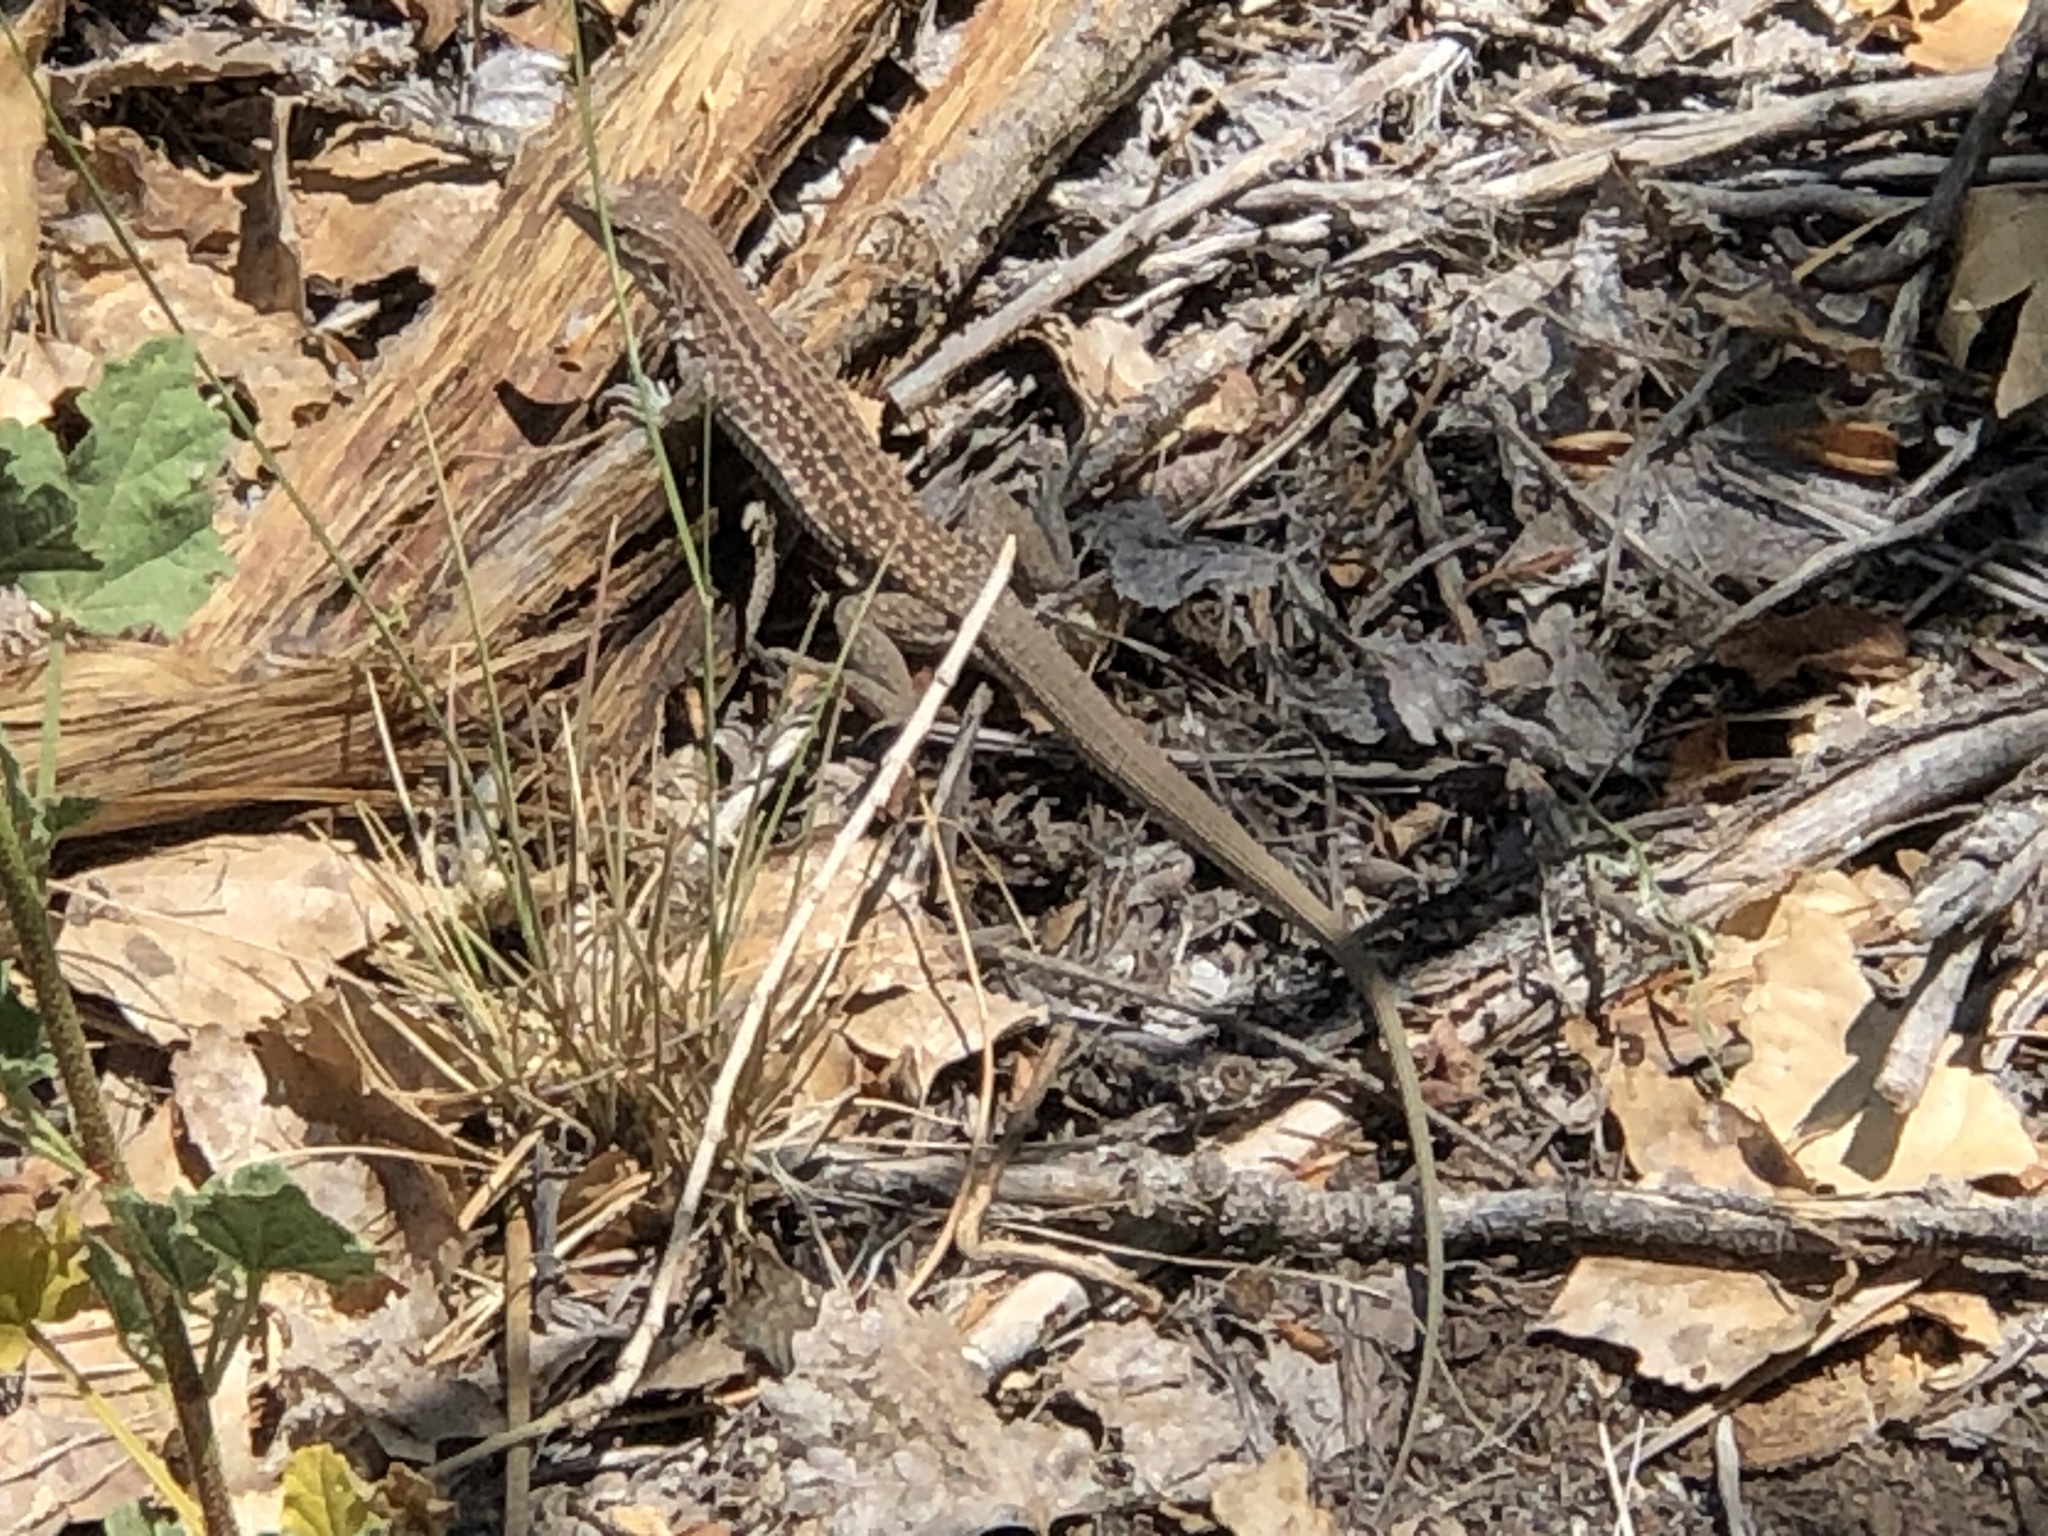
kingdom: Animalia
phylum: Chordata
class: Squamata
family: Teiidae
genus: Aspidoscelis
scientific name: Aspidoscelis exsanguis
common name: Chihuahuan spotted whiptail
